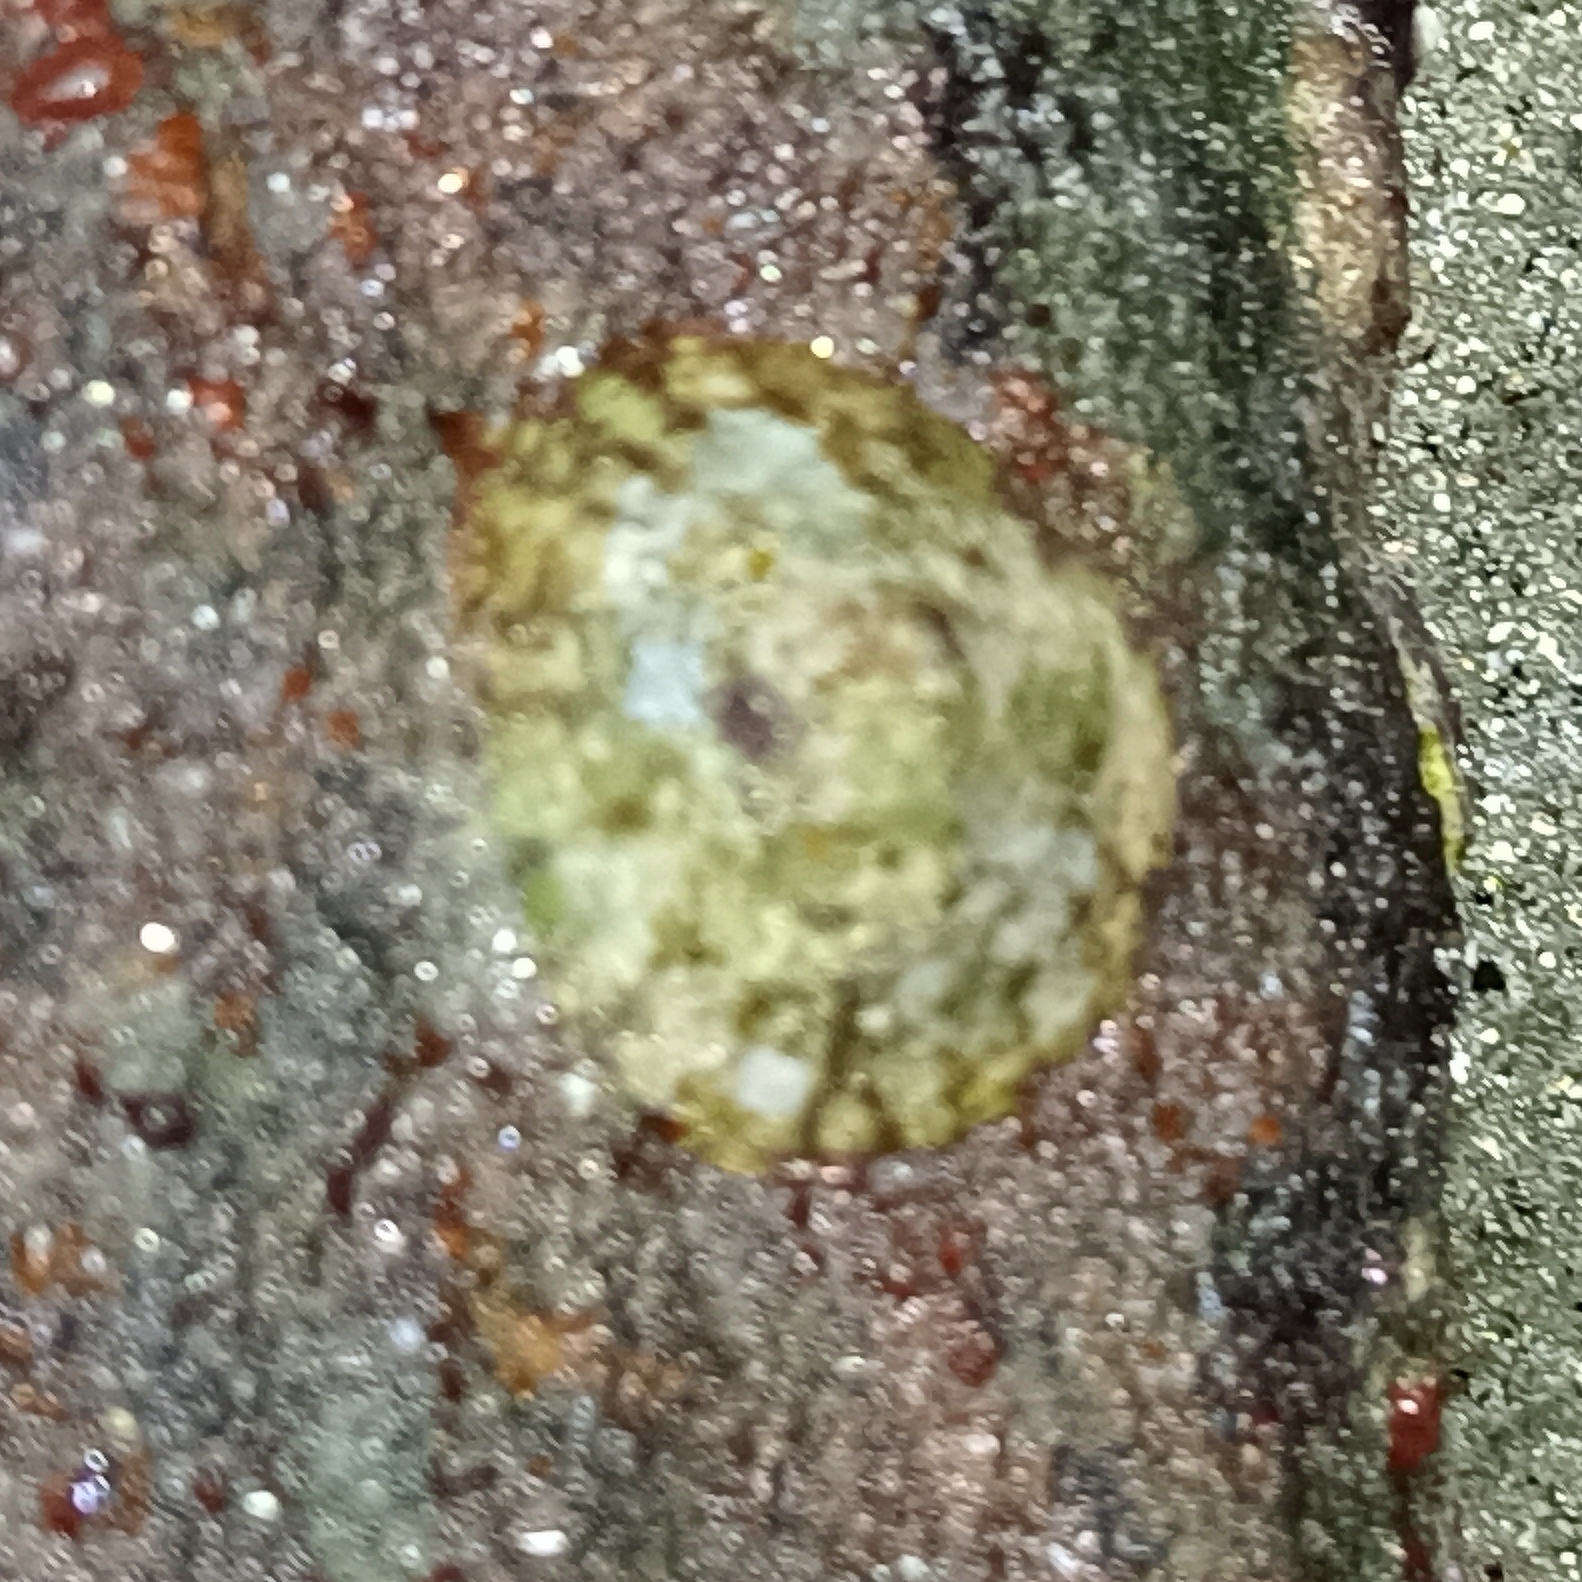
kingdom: Animalia
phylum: Mollusca
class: Gastropoda
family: Lottiidae
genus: Lottia
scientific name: Lottia subrugosa
